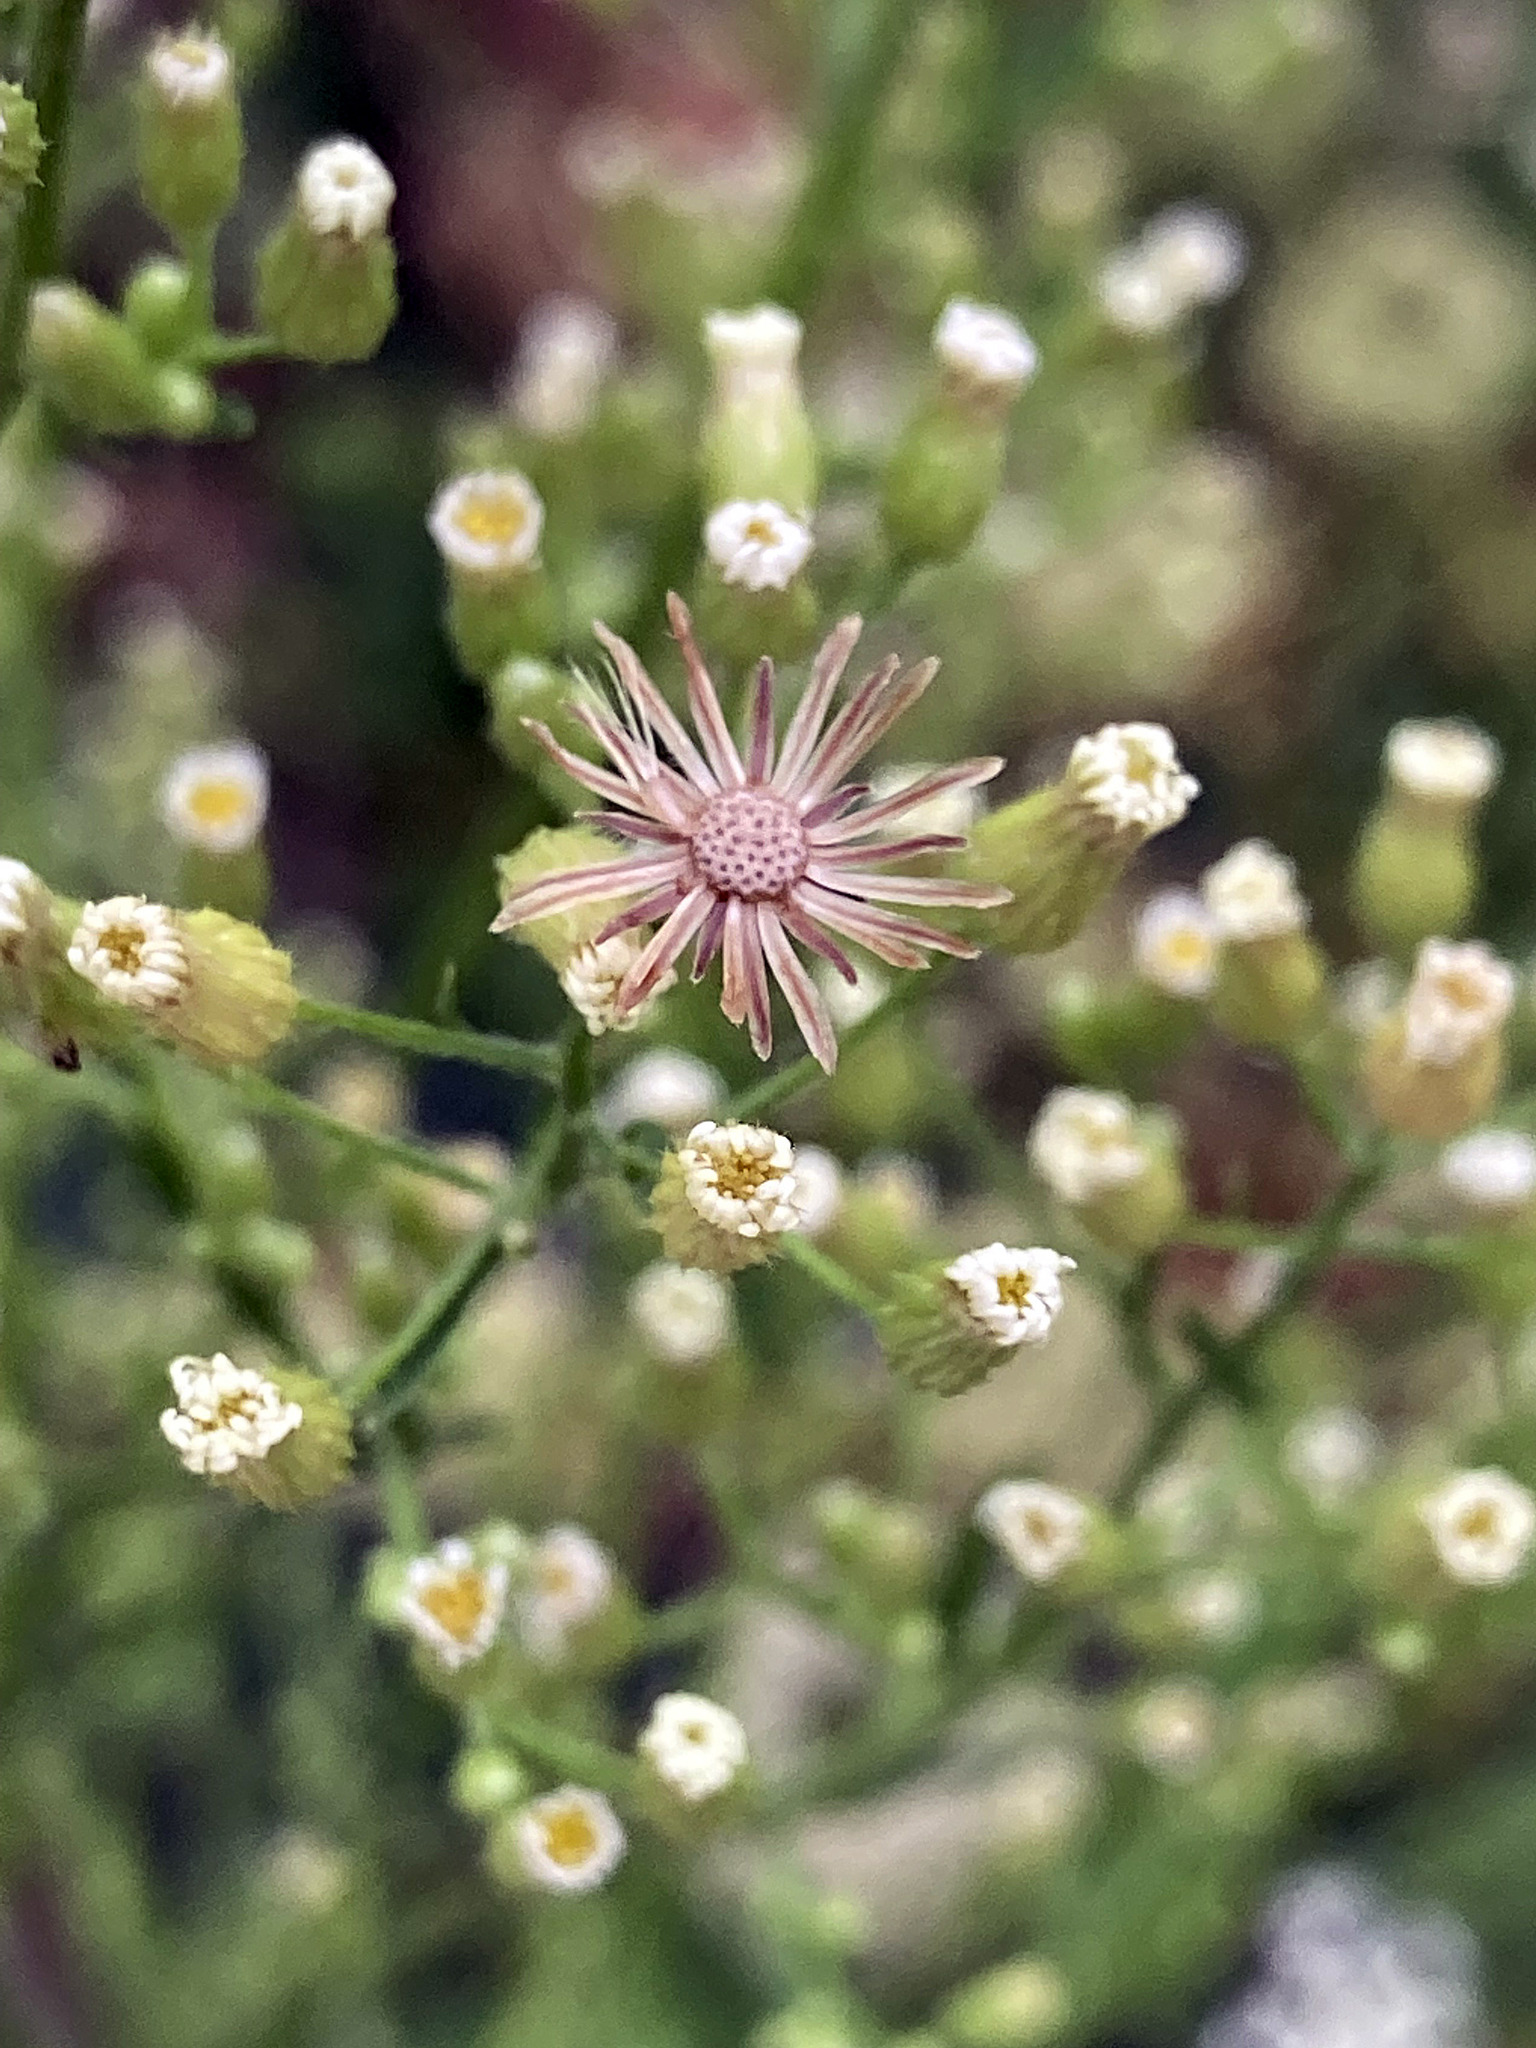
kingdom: Plantae
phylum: Tracheophyta
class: Magnoliopsida
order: Asterales
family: Asteraceae
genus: Erigeron
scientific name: Erigeron canadensis
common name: Canadian fleabane
